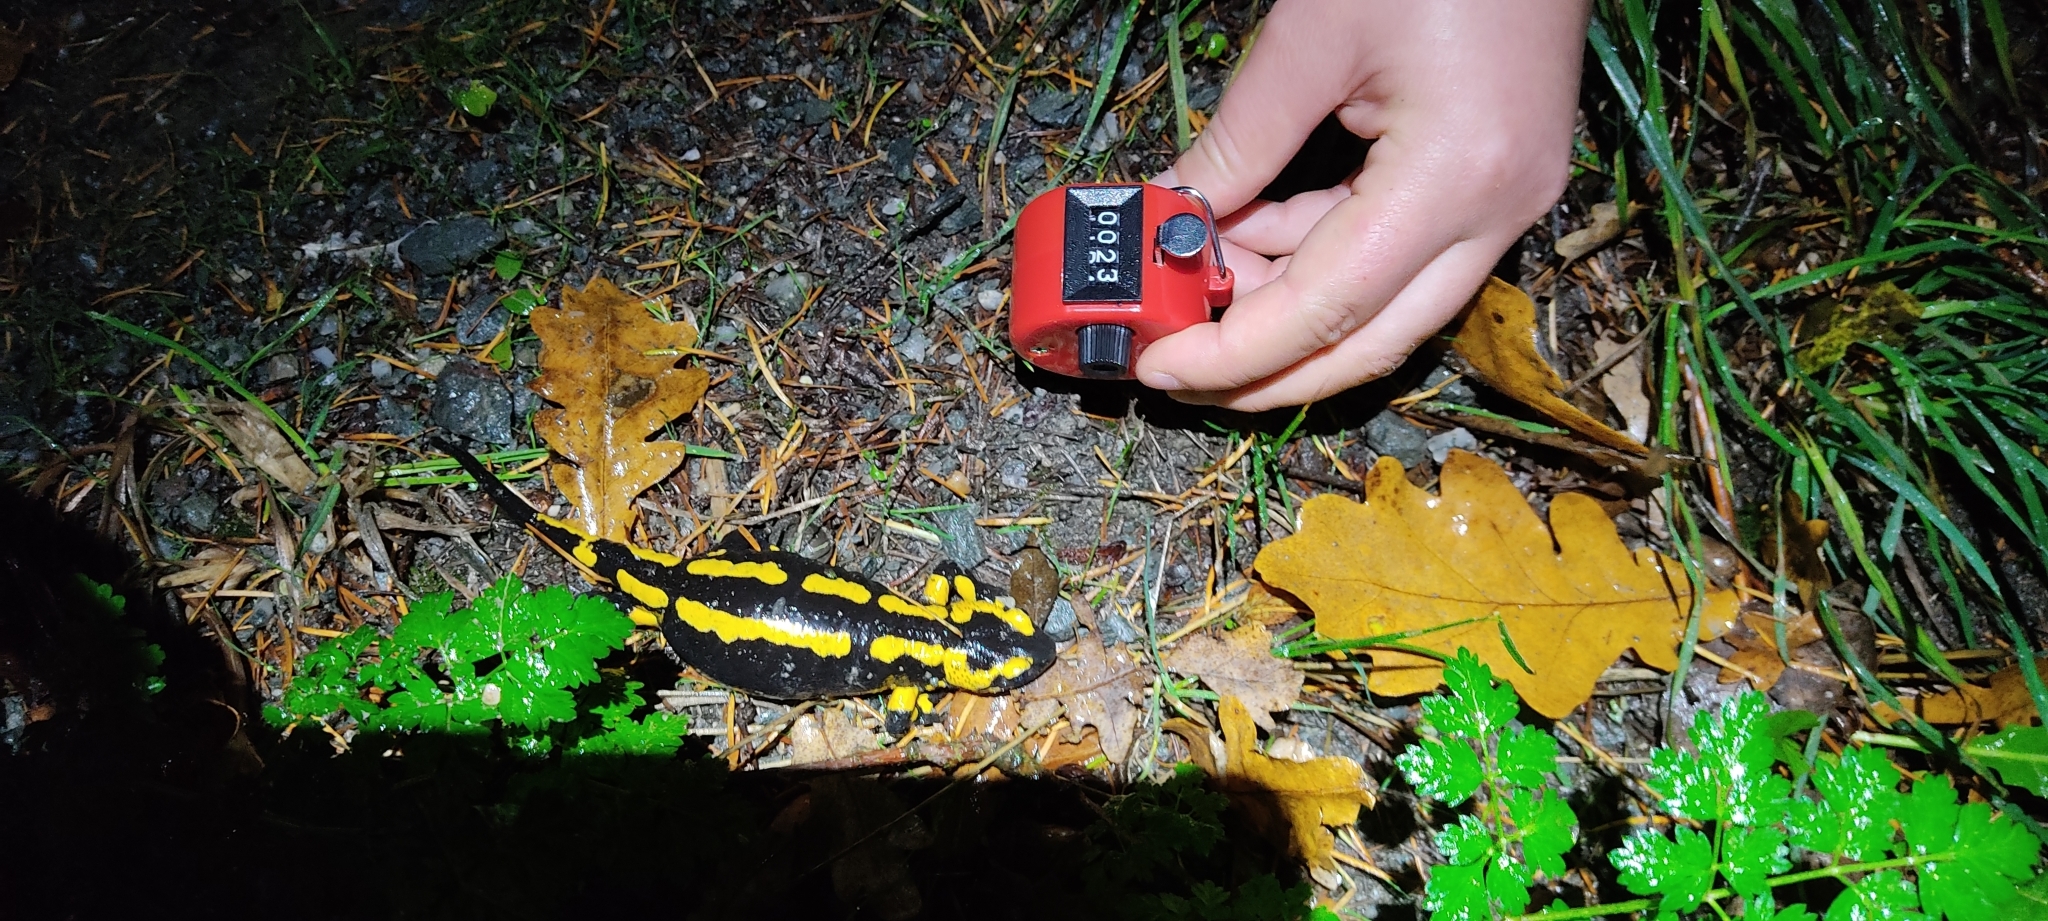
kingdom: Animalia
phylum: Chordata
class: Amphibia
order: Caudata
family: Salamandridae
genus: Salamandra
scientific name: Salamandra salamandra
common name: Fire salamander
